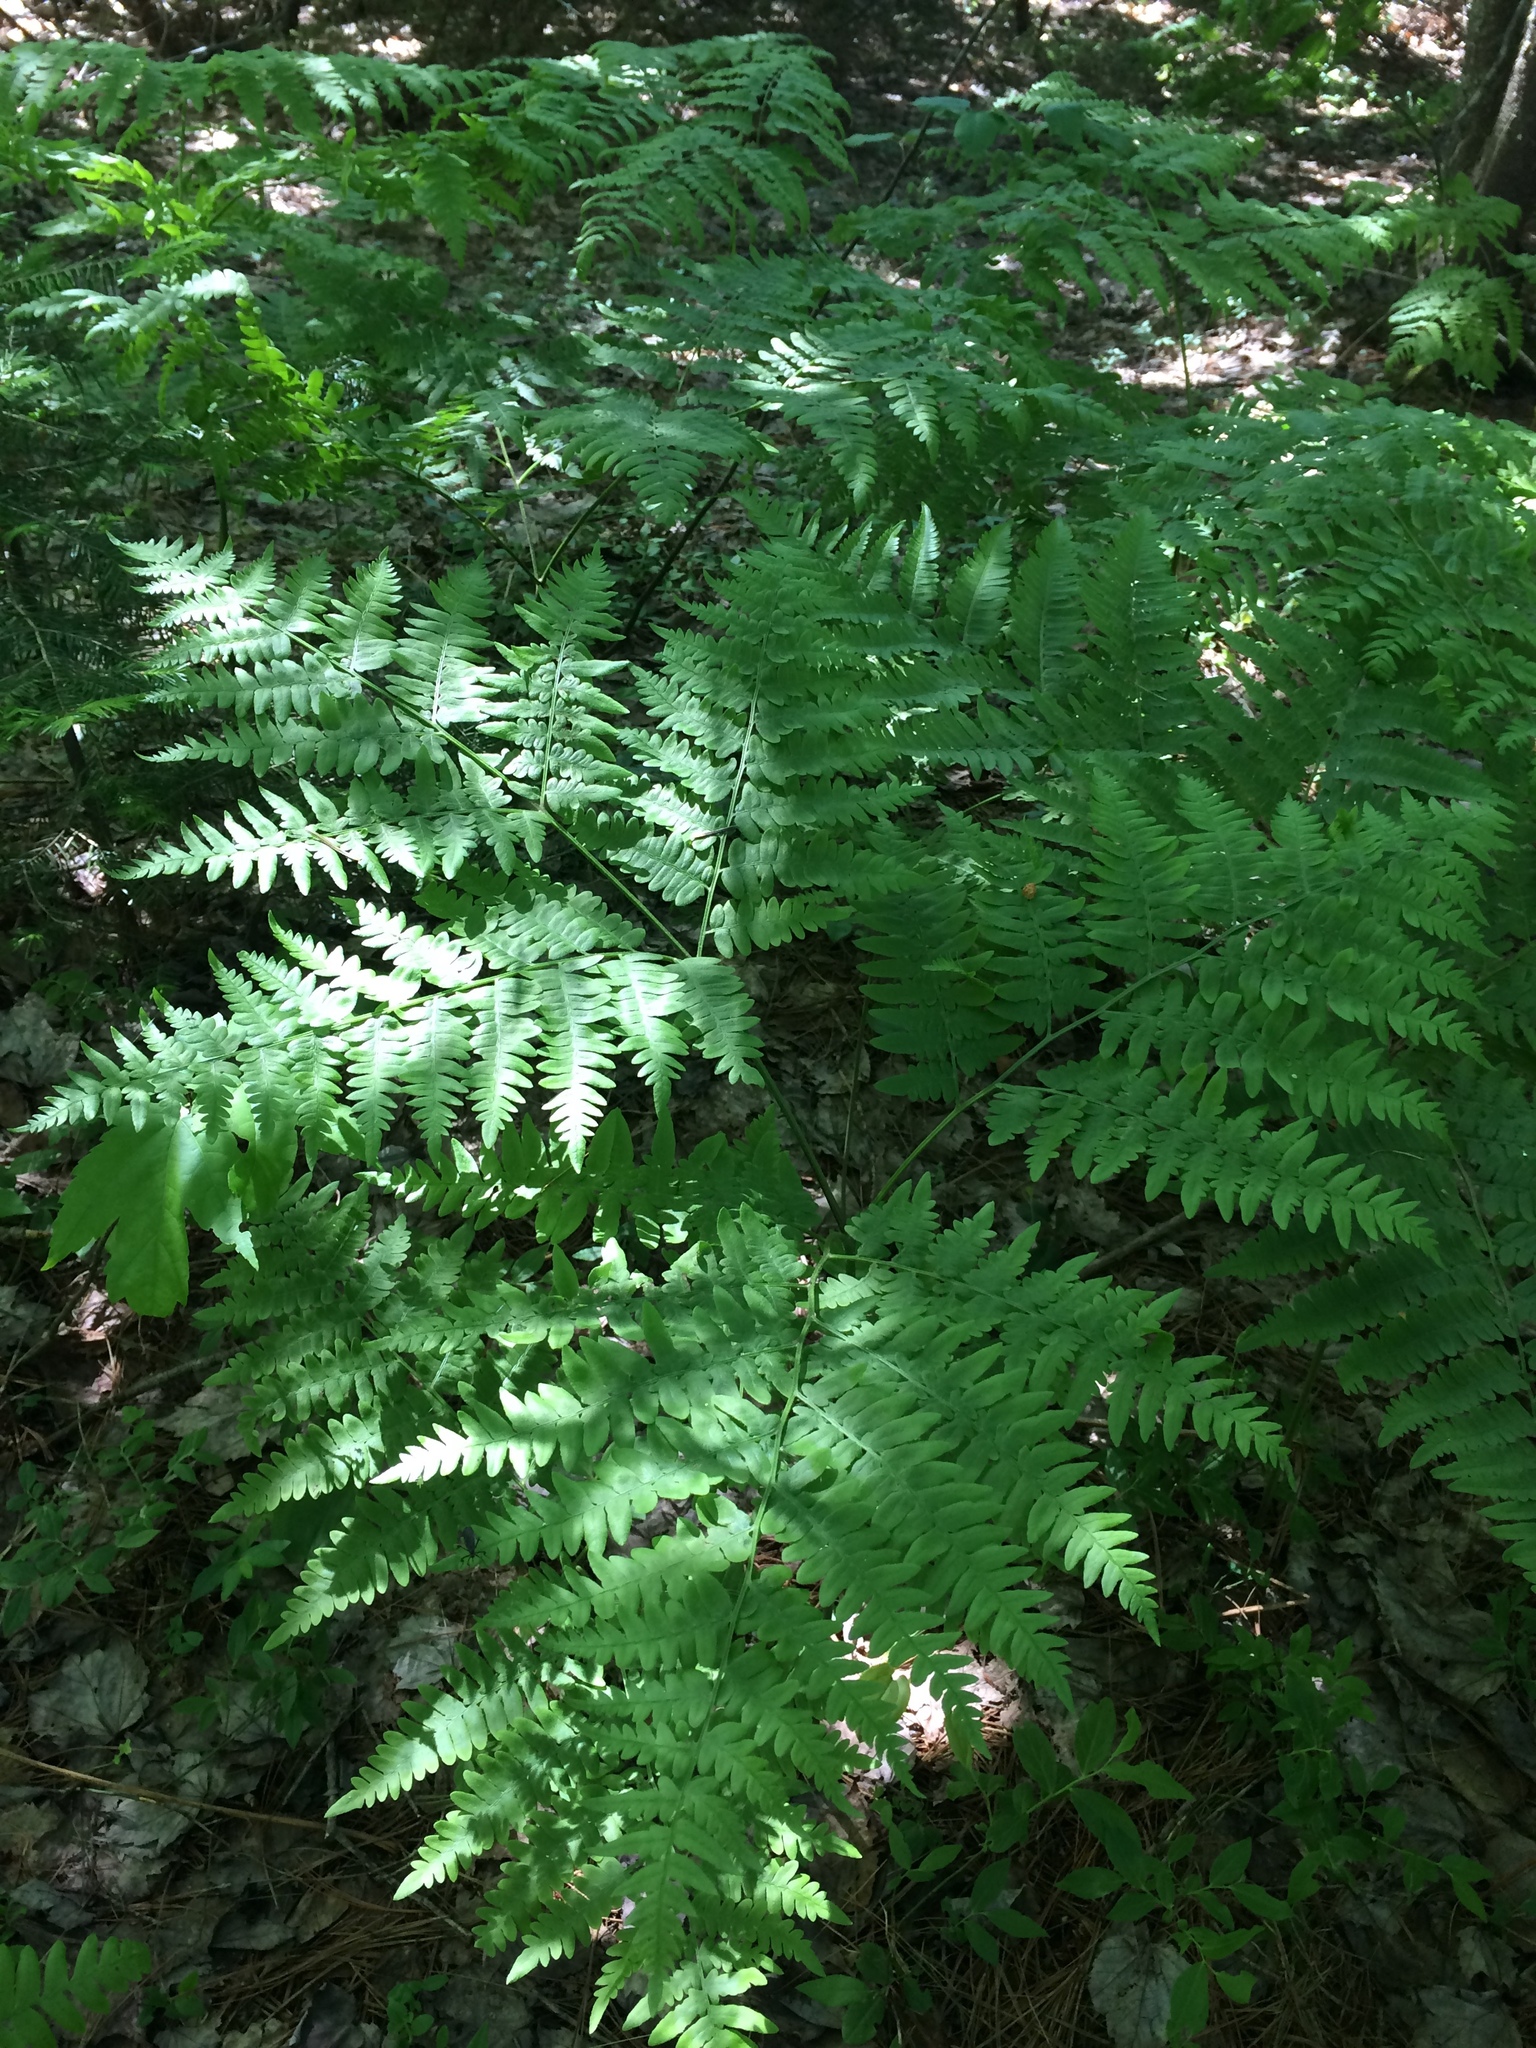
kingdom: Plantae
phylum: Tracheophyta
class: Polypodiopsida
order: Polypodiales
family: Dennstaedtiaceae
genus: Pteridium
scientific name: Pteridium aquilinum
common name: Bracken
